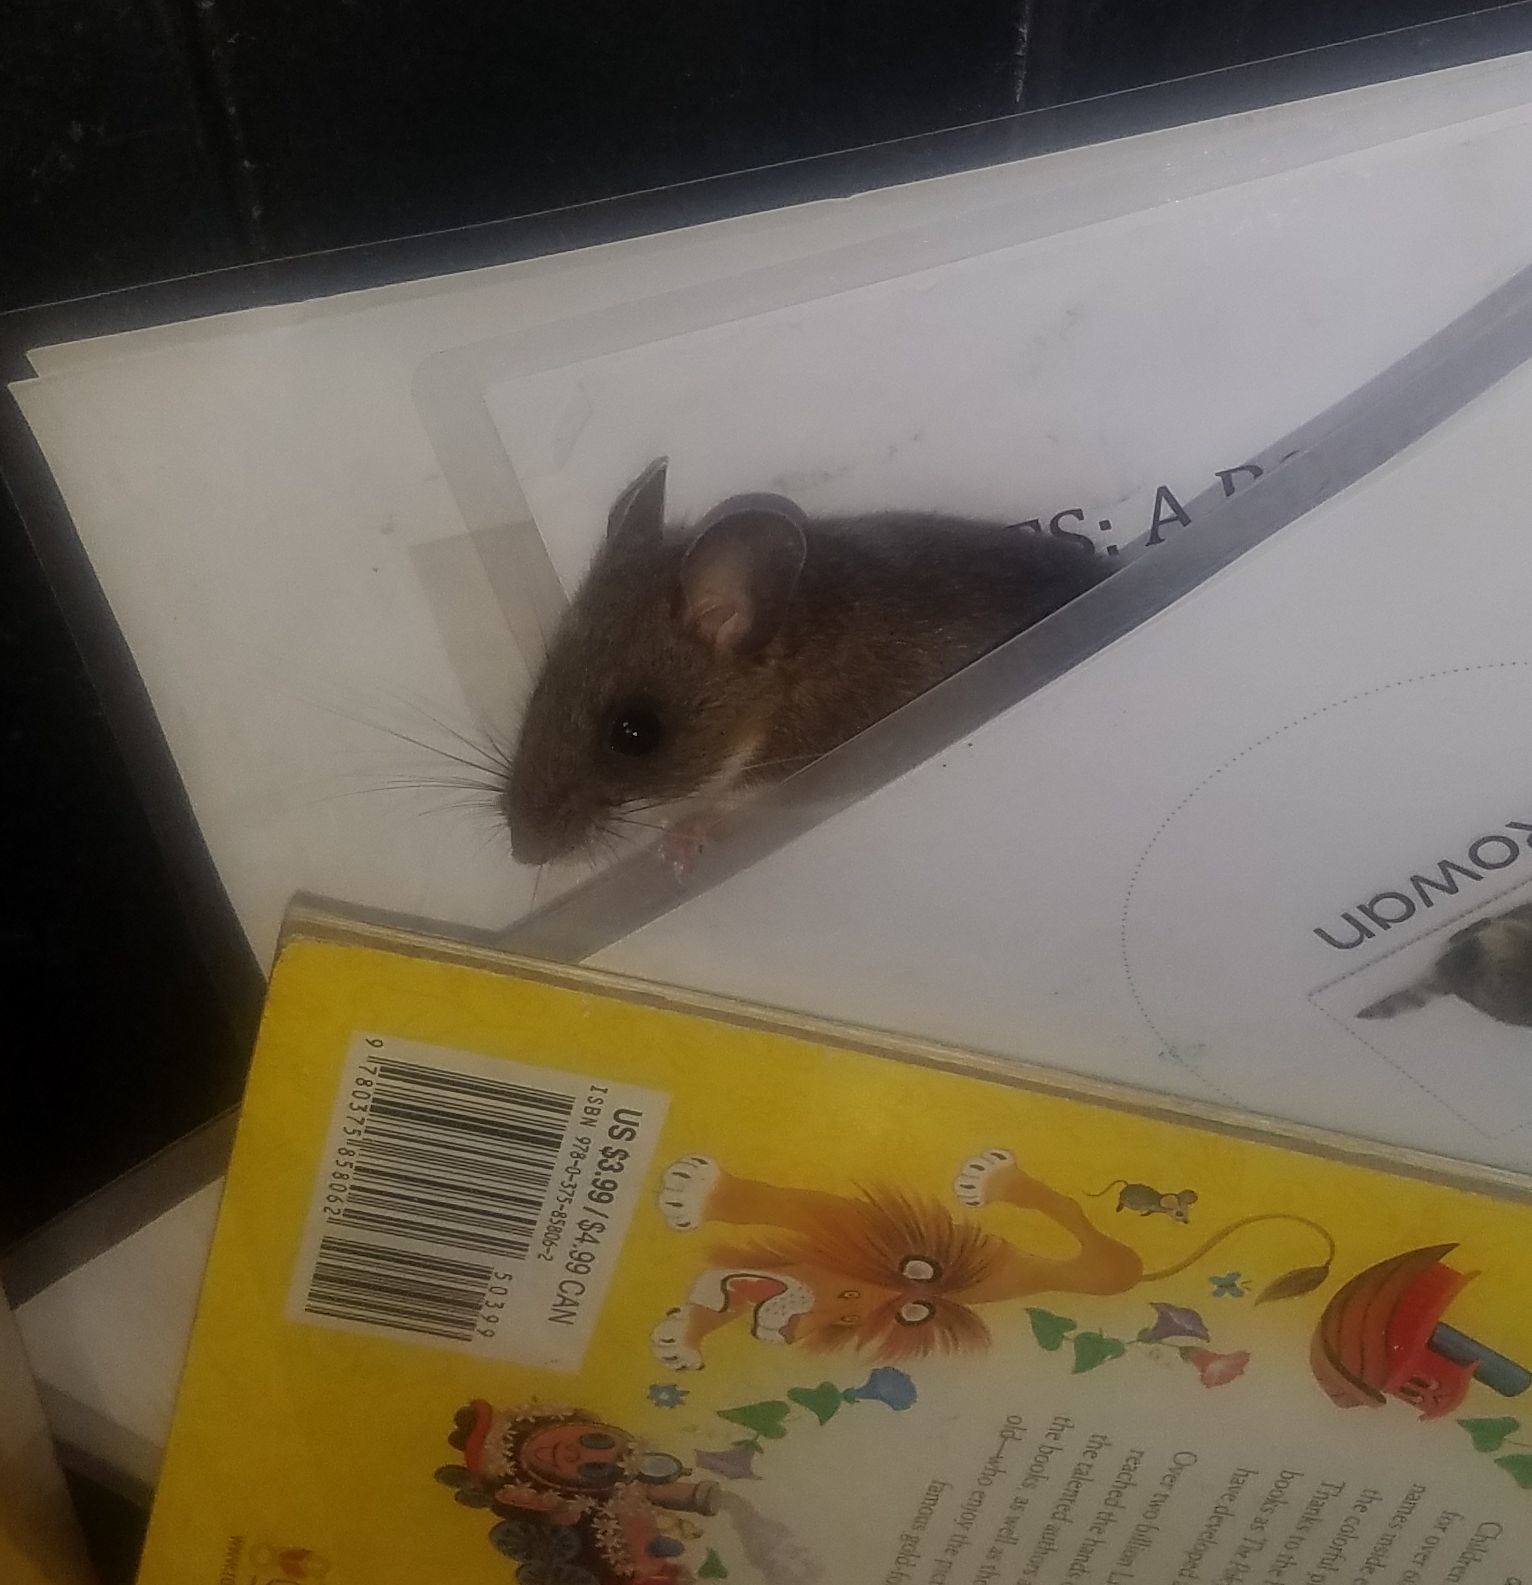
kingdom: Animalia
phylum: Chordata
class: Mammalia
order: Rodentia
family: Cricetidae
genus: Peromyscus
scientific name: Peromyscus maniculatus
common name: Deer mouse
